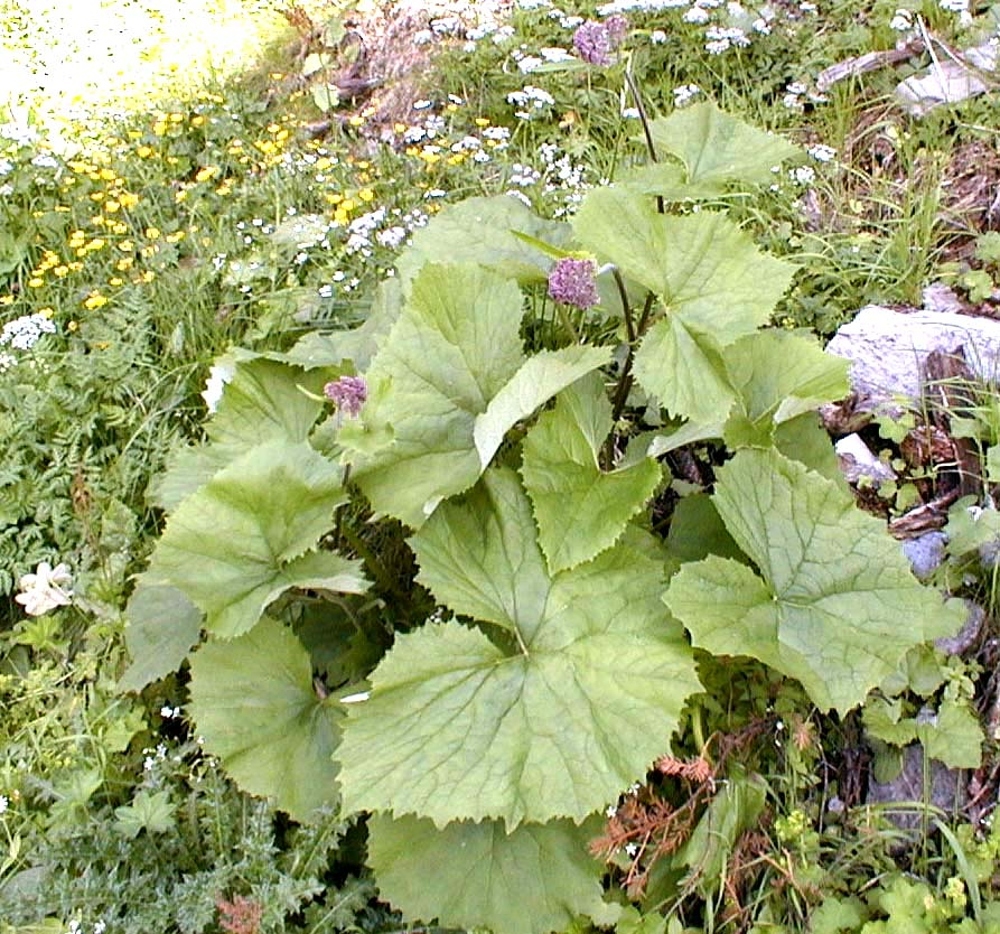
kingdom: Plantae
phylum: Tracheophyta
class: Magnoliopsida
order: Asterales
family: Asteraceae
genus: Adenostyles
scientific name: Adenostyles alliariae
